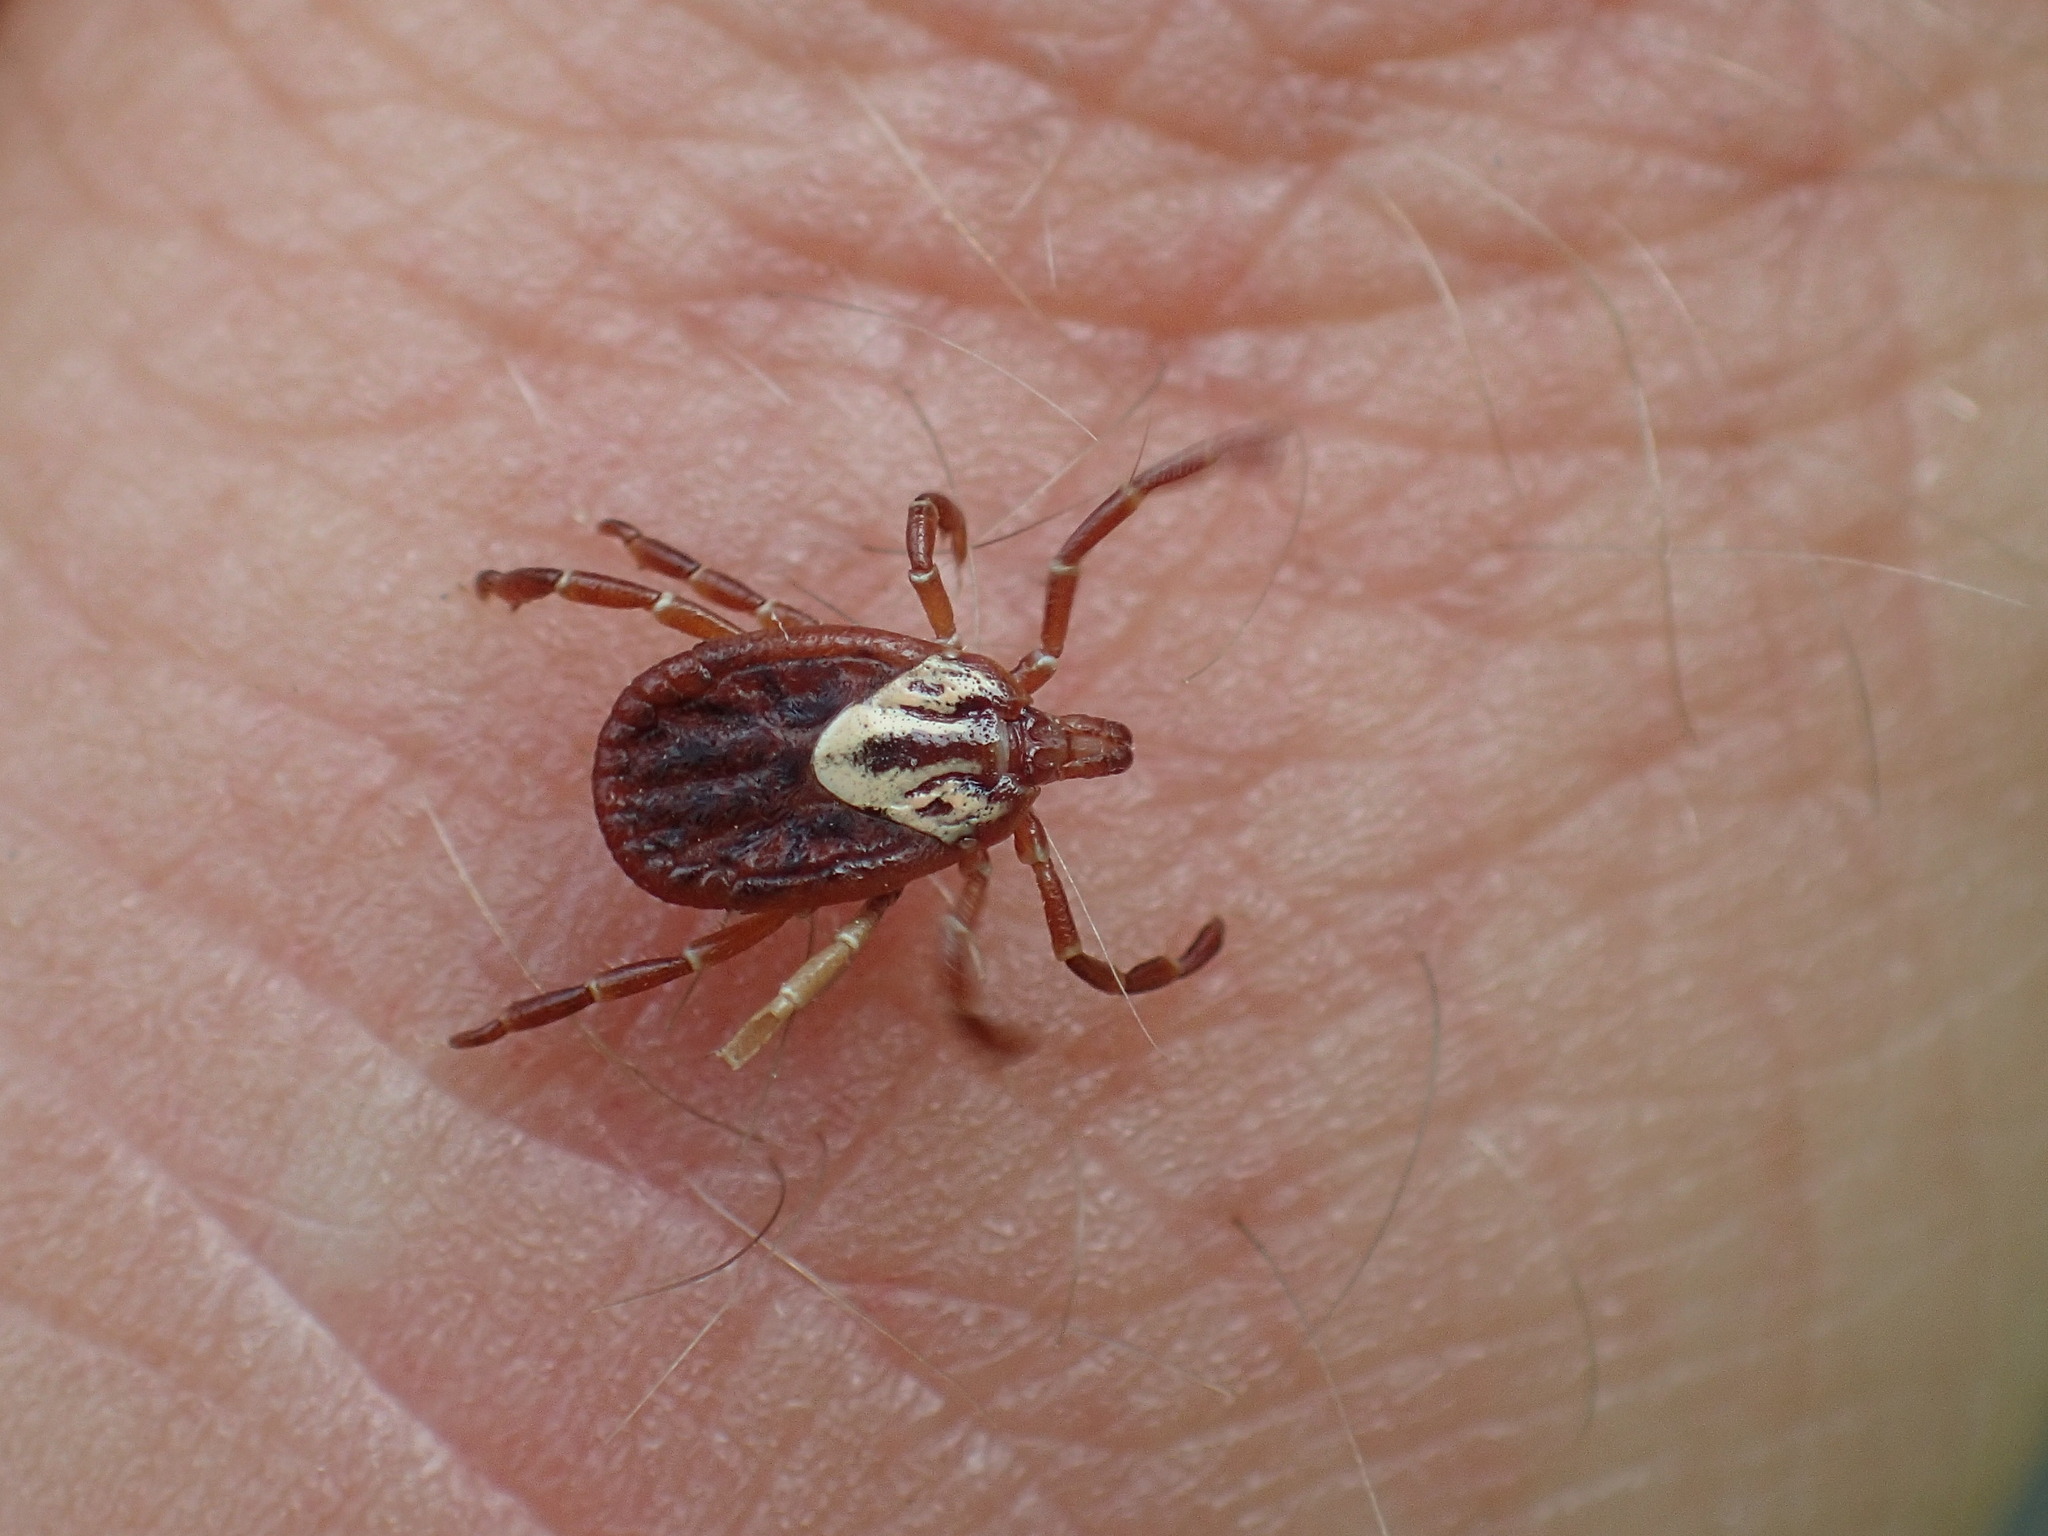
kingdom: Animalia
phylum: Arthropoda
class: Arachnida
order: Ixodida
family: Ixodidae
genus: Amblyomma
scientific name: Amblyomma maculatum
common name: Gulf coast tick
